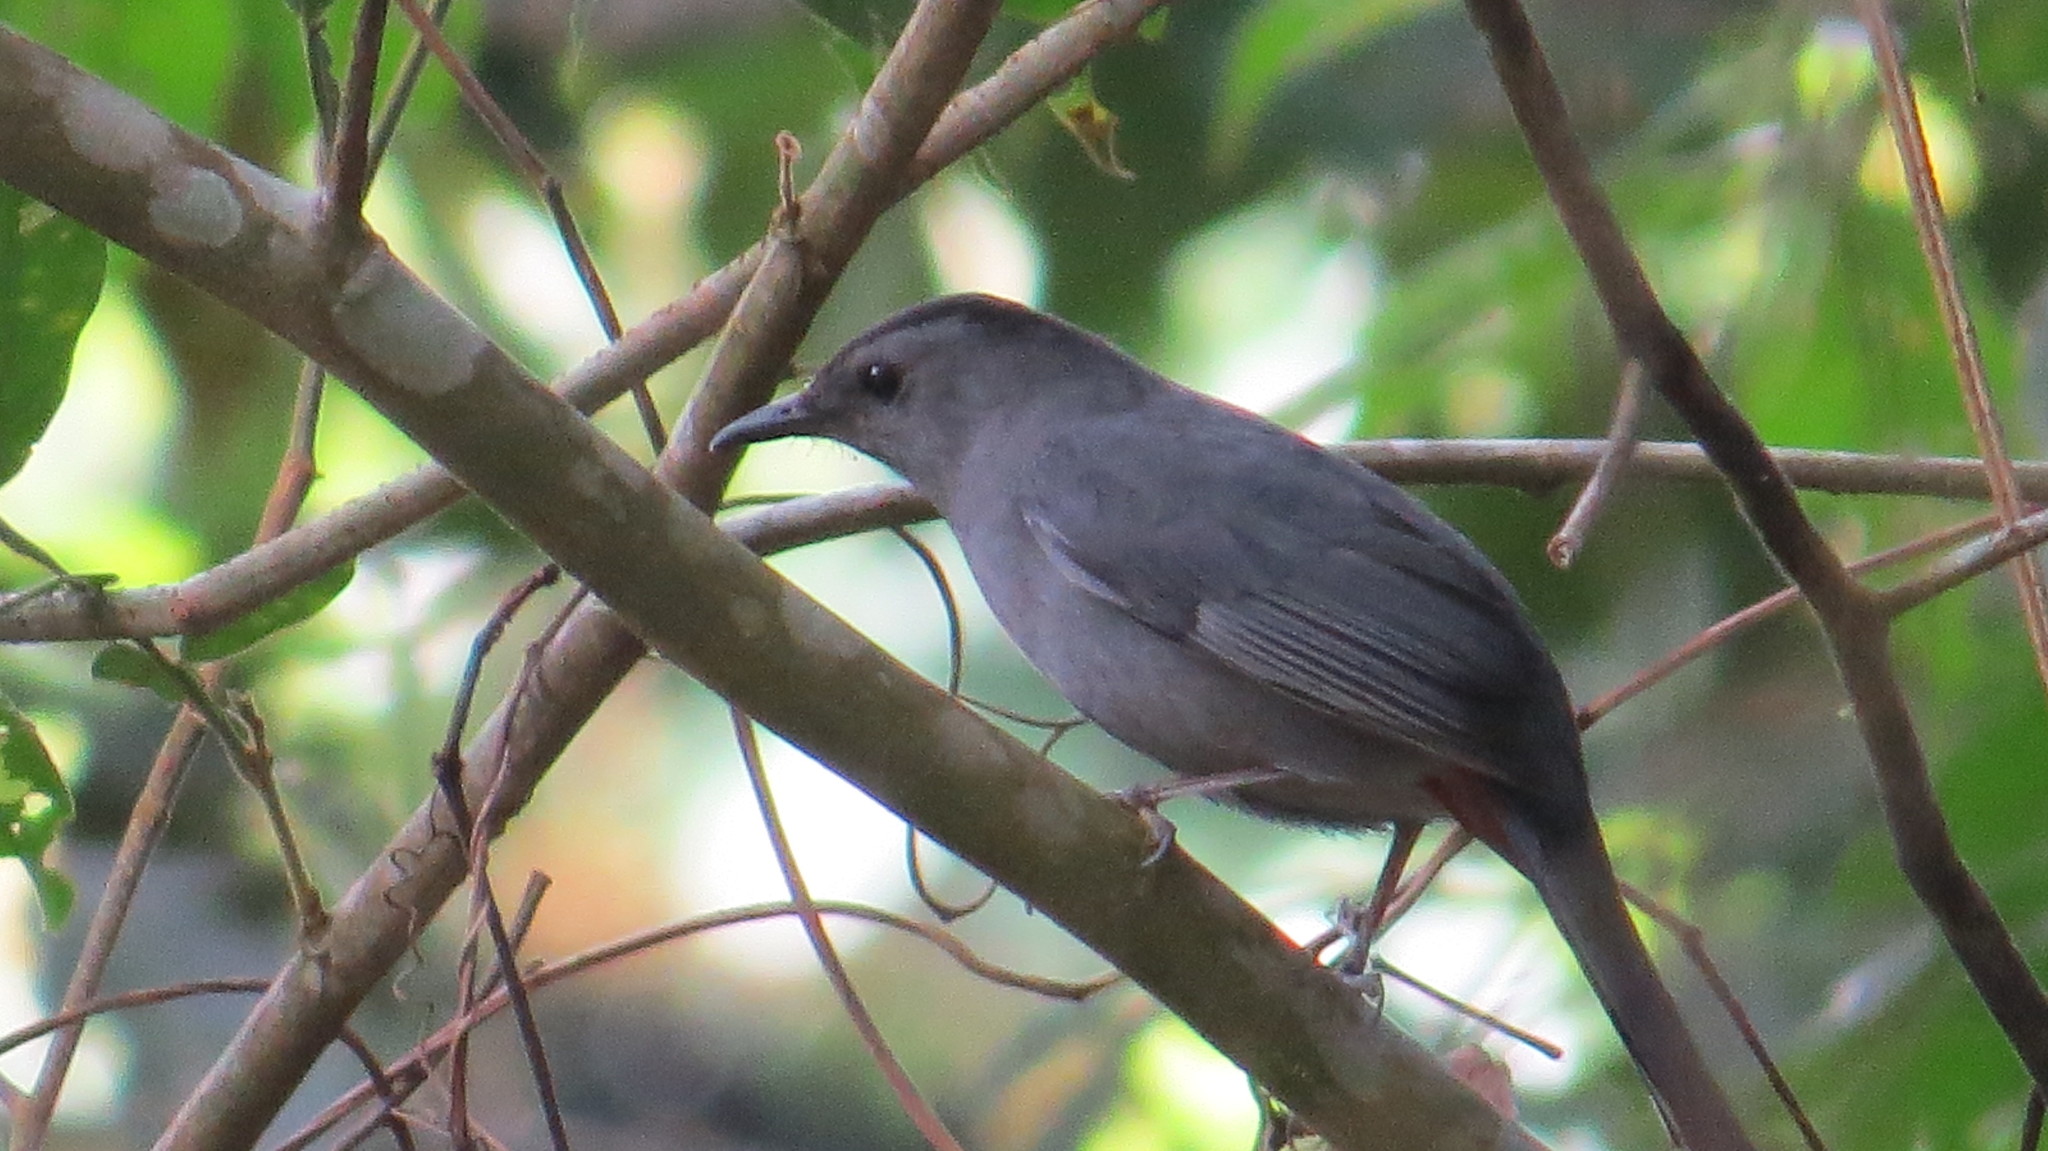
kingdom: Animalia
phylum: Chordata
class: Aves
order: Passeriformes
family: Mimidae
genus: Dumetella
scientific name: Dumetella carolinensis
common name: Gray catbird
